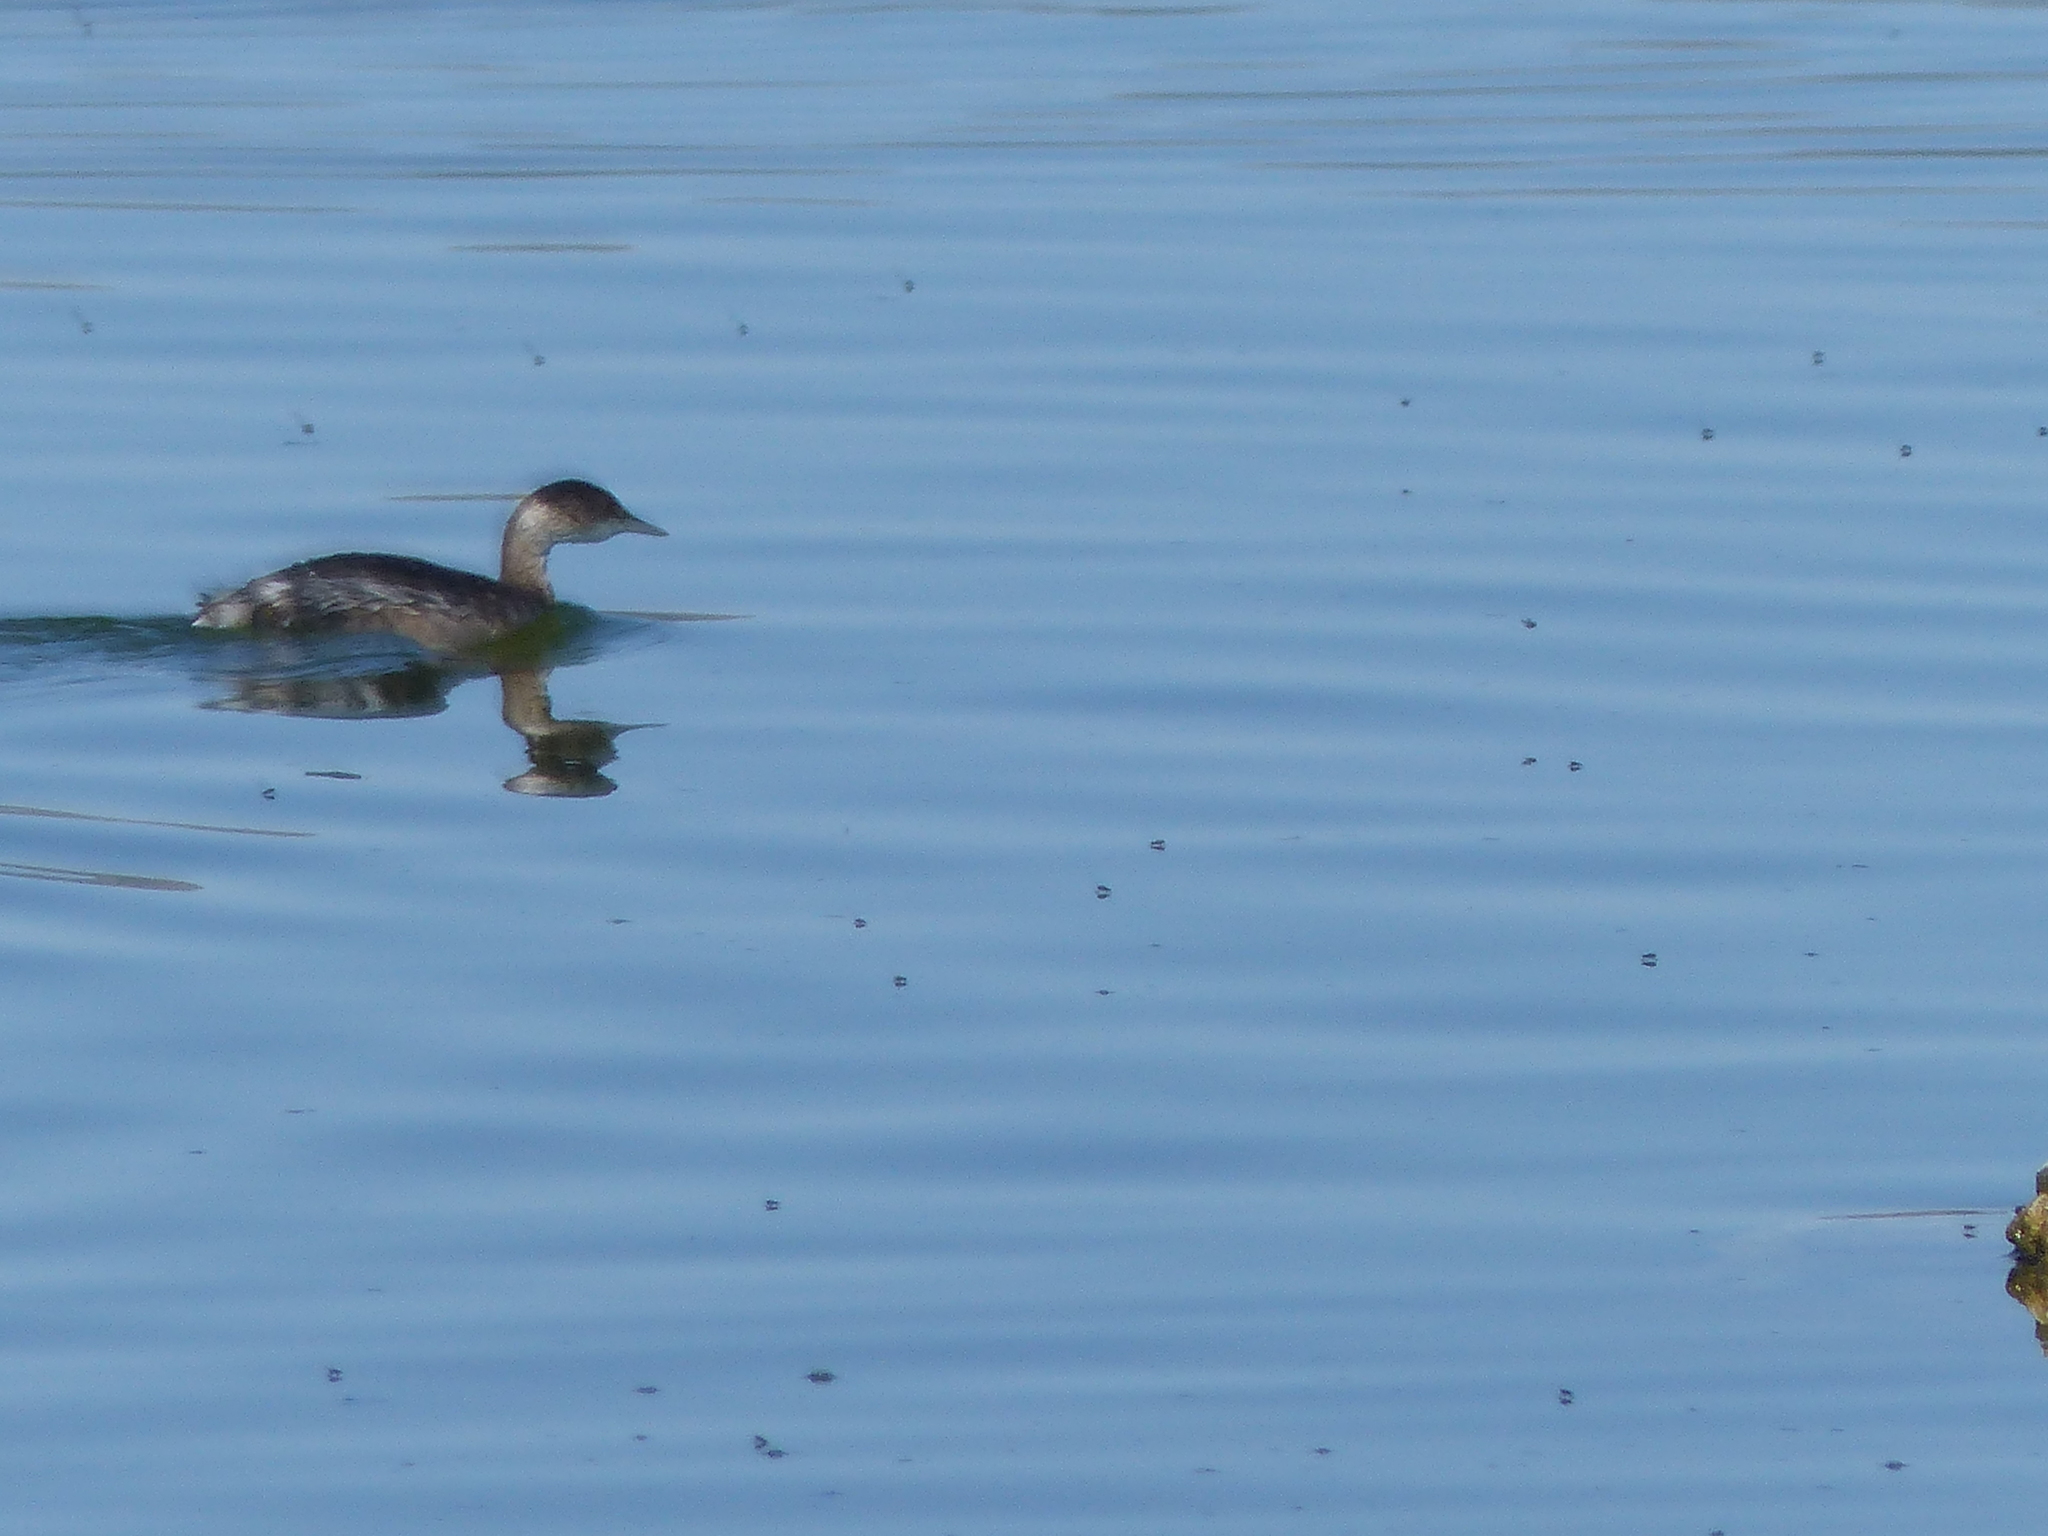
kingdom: Animalia
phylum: Chordata
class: Aves
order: Podicipediformes
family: Podicipedidae
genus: Podiceps
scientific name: Podiceps nigricollis
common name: Black-necked grebe
